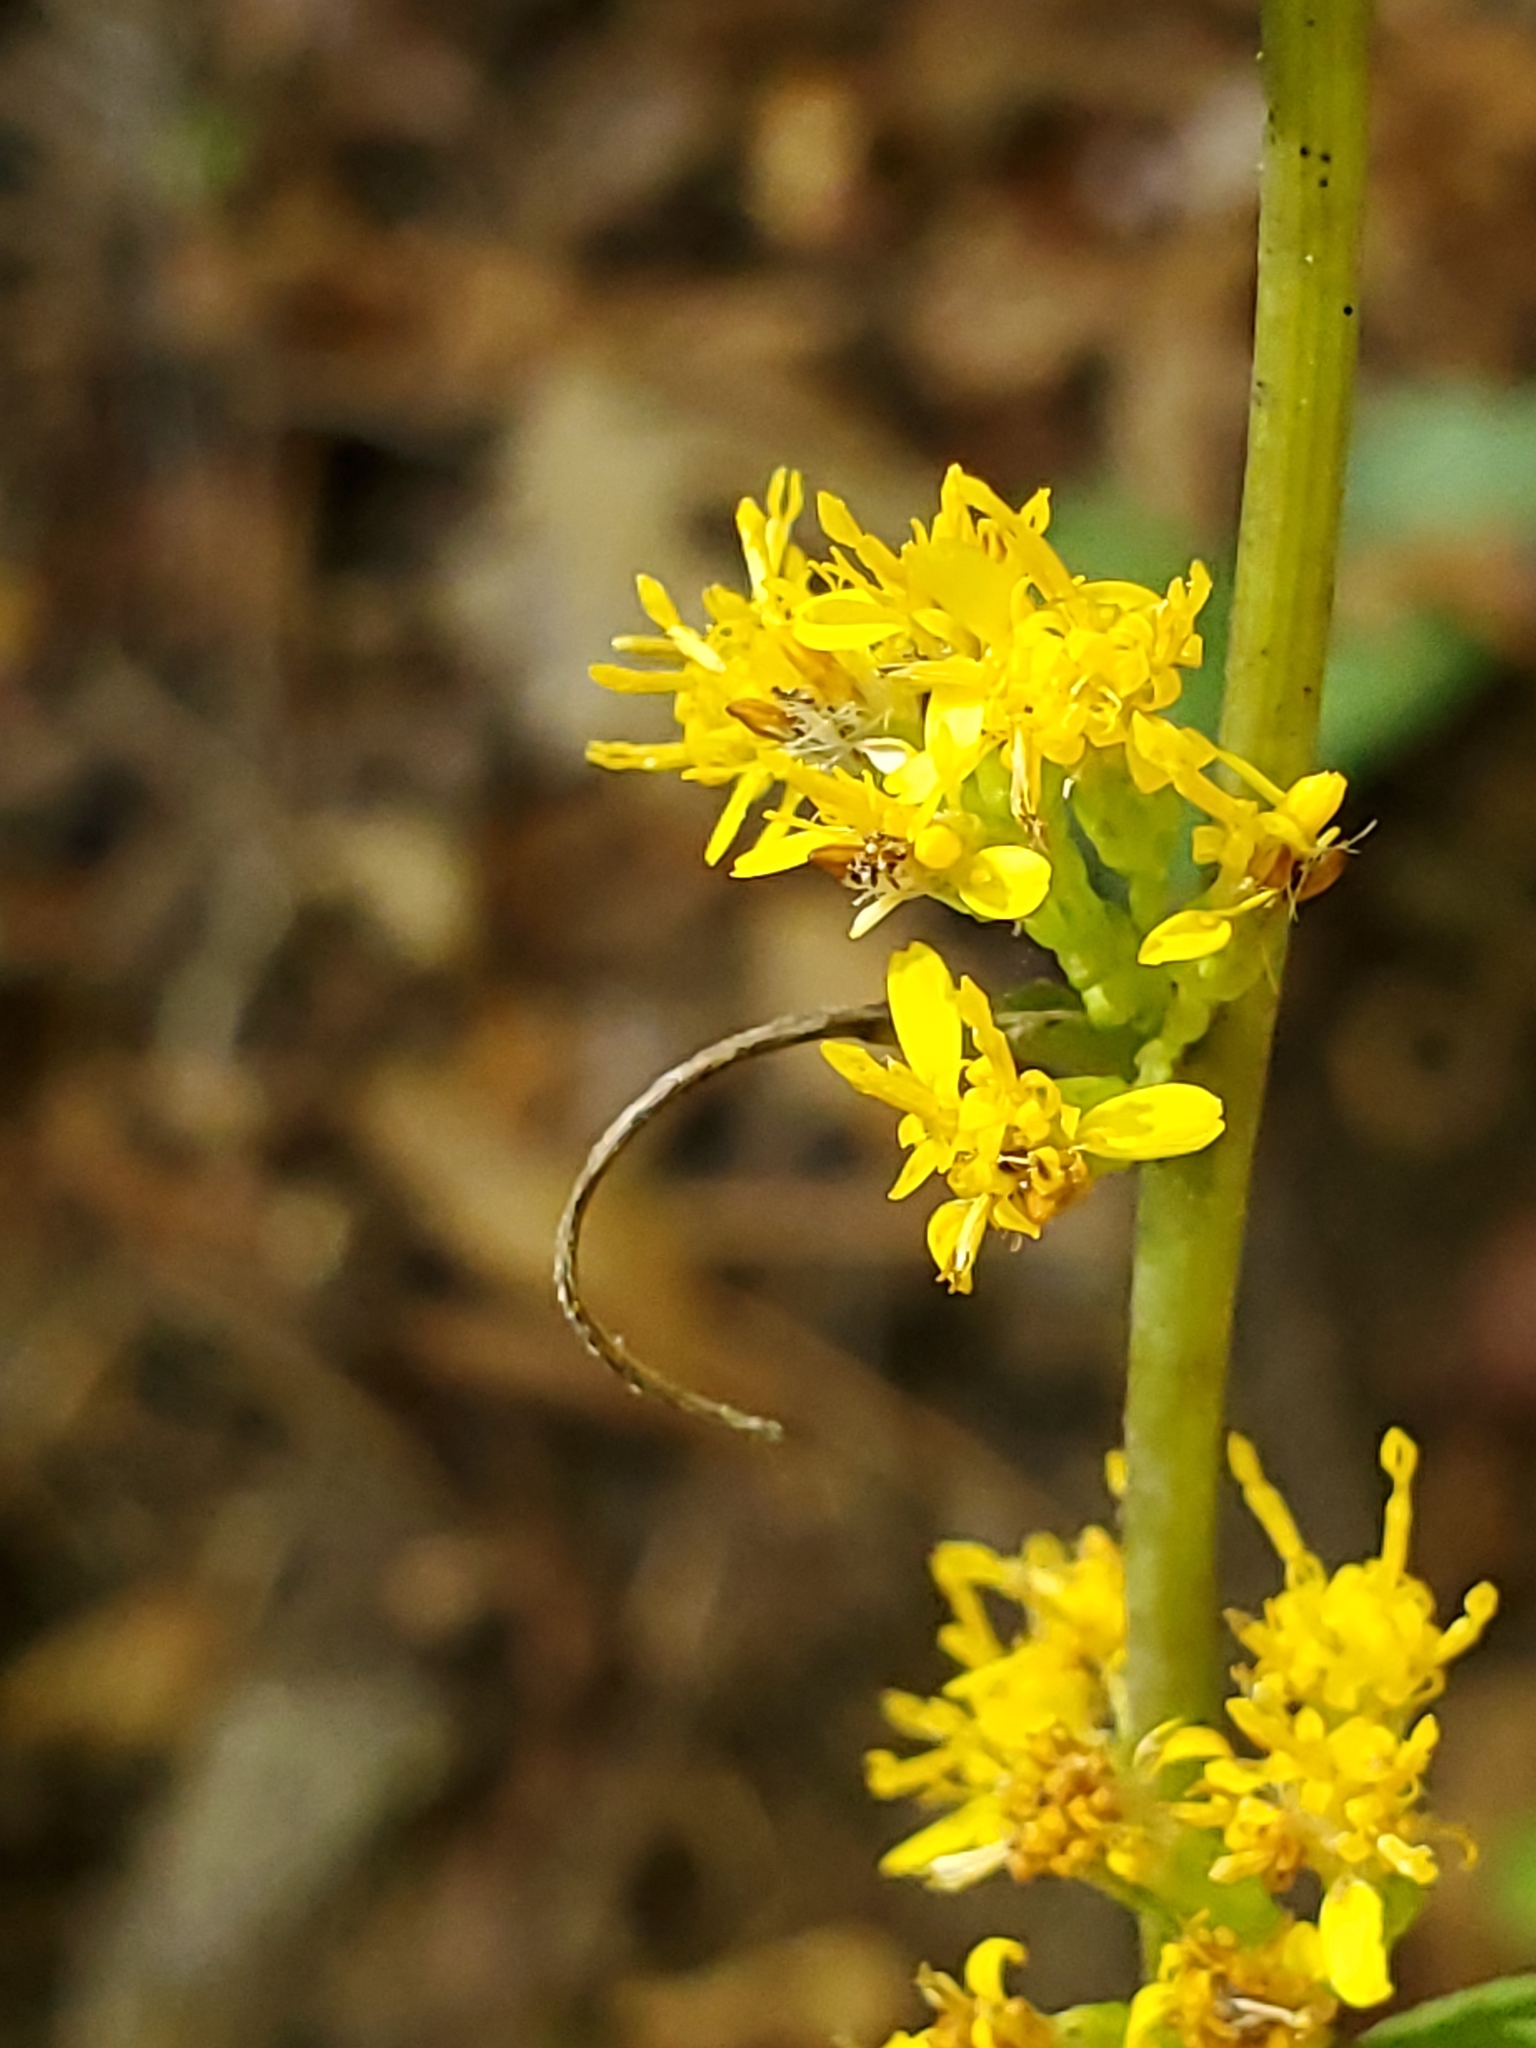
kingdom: Plantae
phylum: Tracheophyta
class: Magnoliopsida
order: Asterales
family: Asteraceae
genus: Solidago
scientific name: Solidago caesia
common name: Woodland goldenrod
